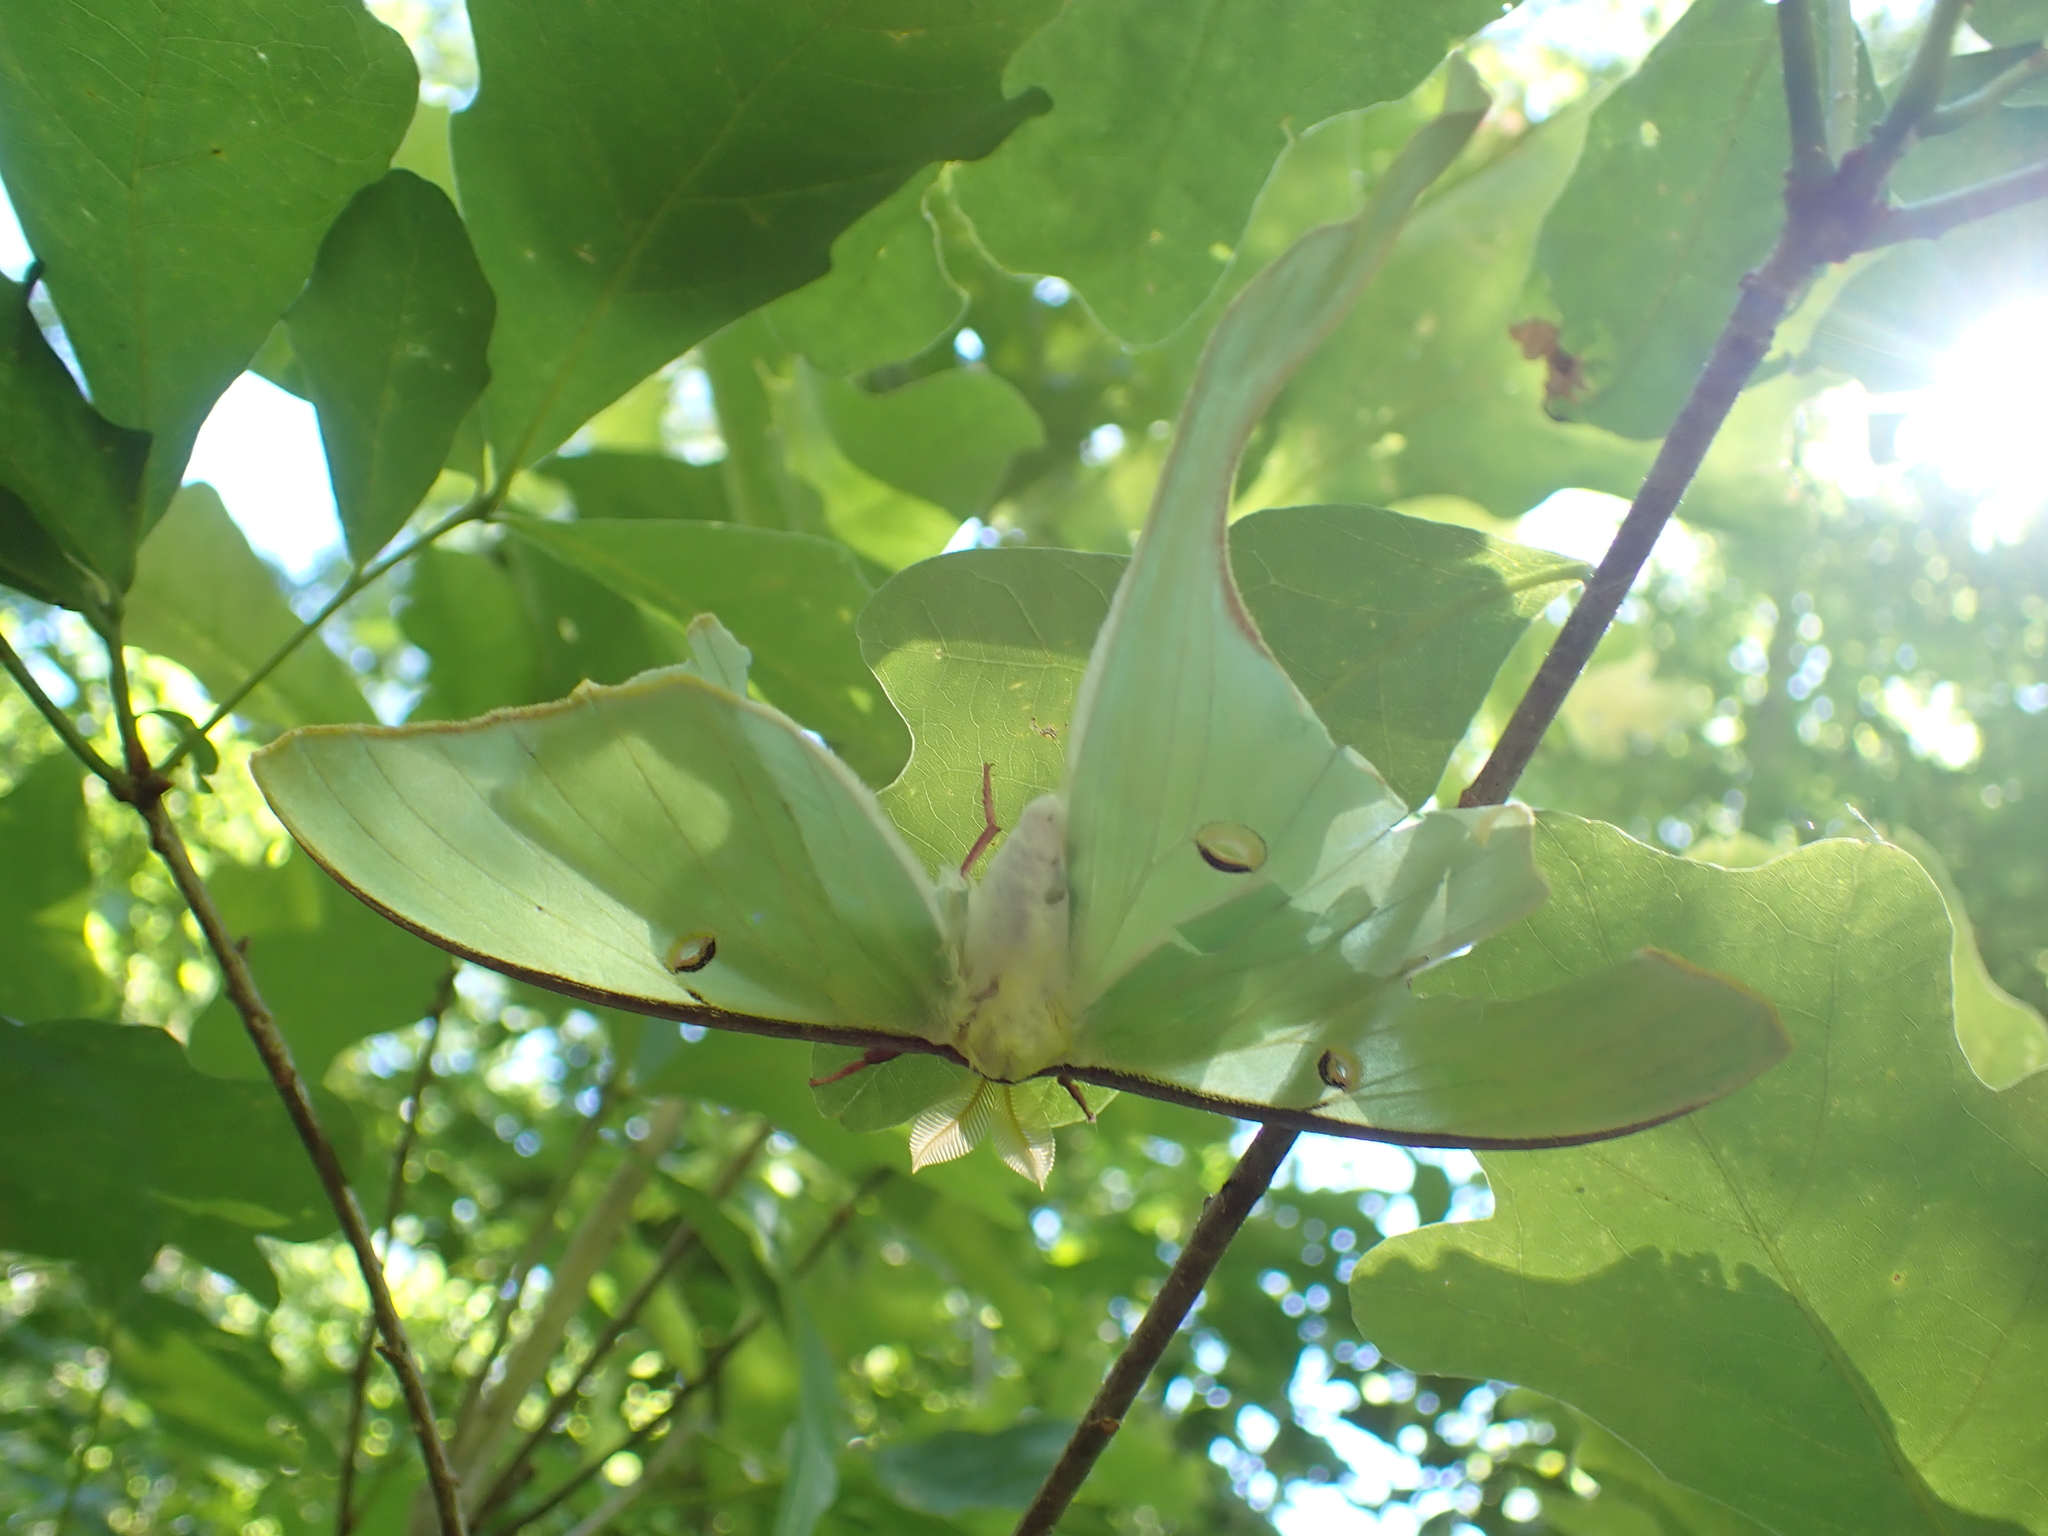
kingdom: Animalia
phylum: Arthropoda
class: Insecta
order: Lepidoptera
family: Saturniidae
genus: Actias
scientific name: Actias luna
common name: Luna moth
